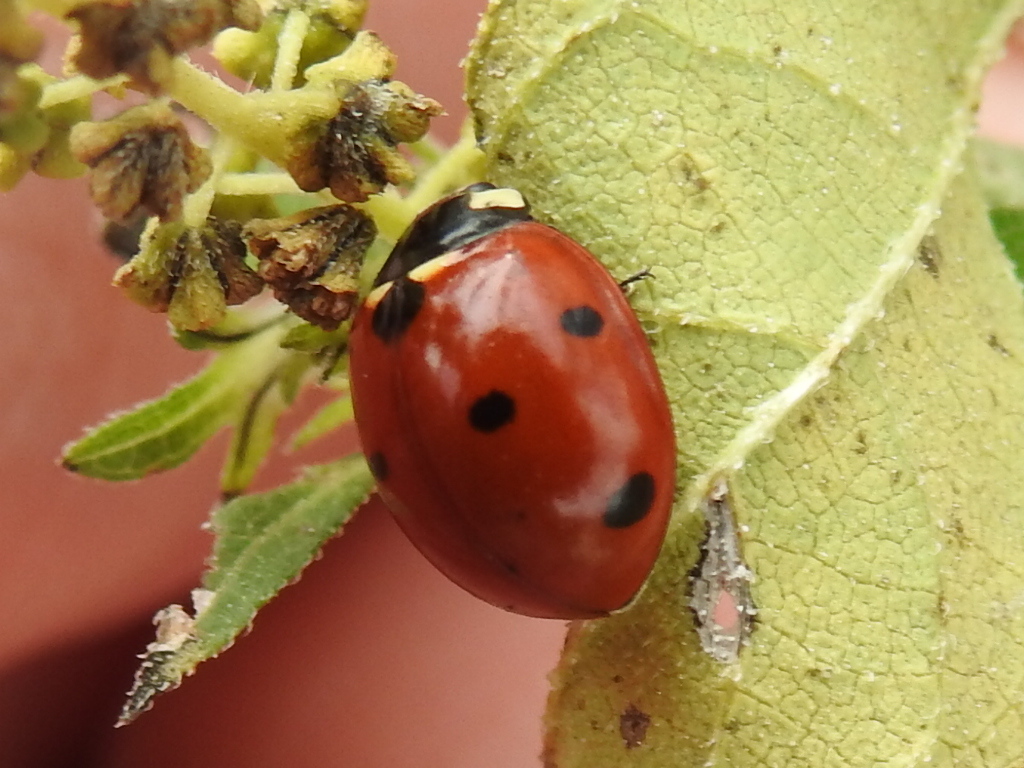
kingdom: Animalia
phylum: Arthropoda
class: Insecta
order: Coleoptera
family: Coccinellidae
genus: Coccinella
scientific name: Coccinella septempunctata
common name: Sevenspotted lady beetle
